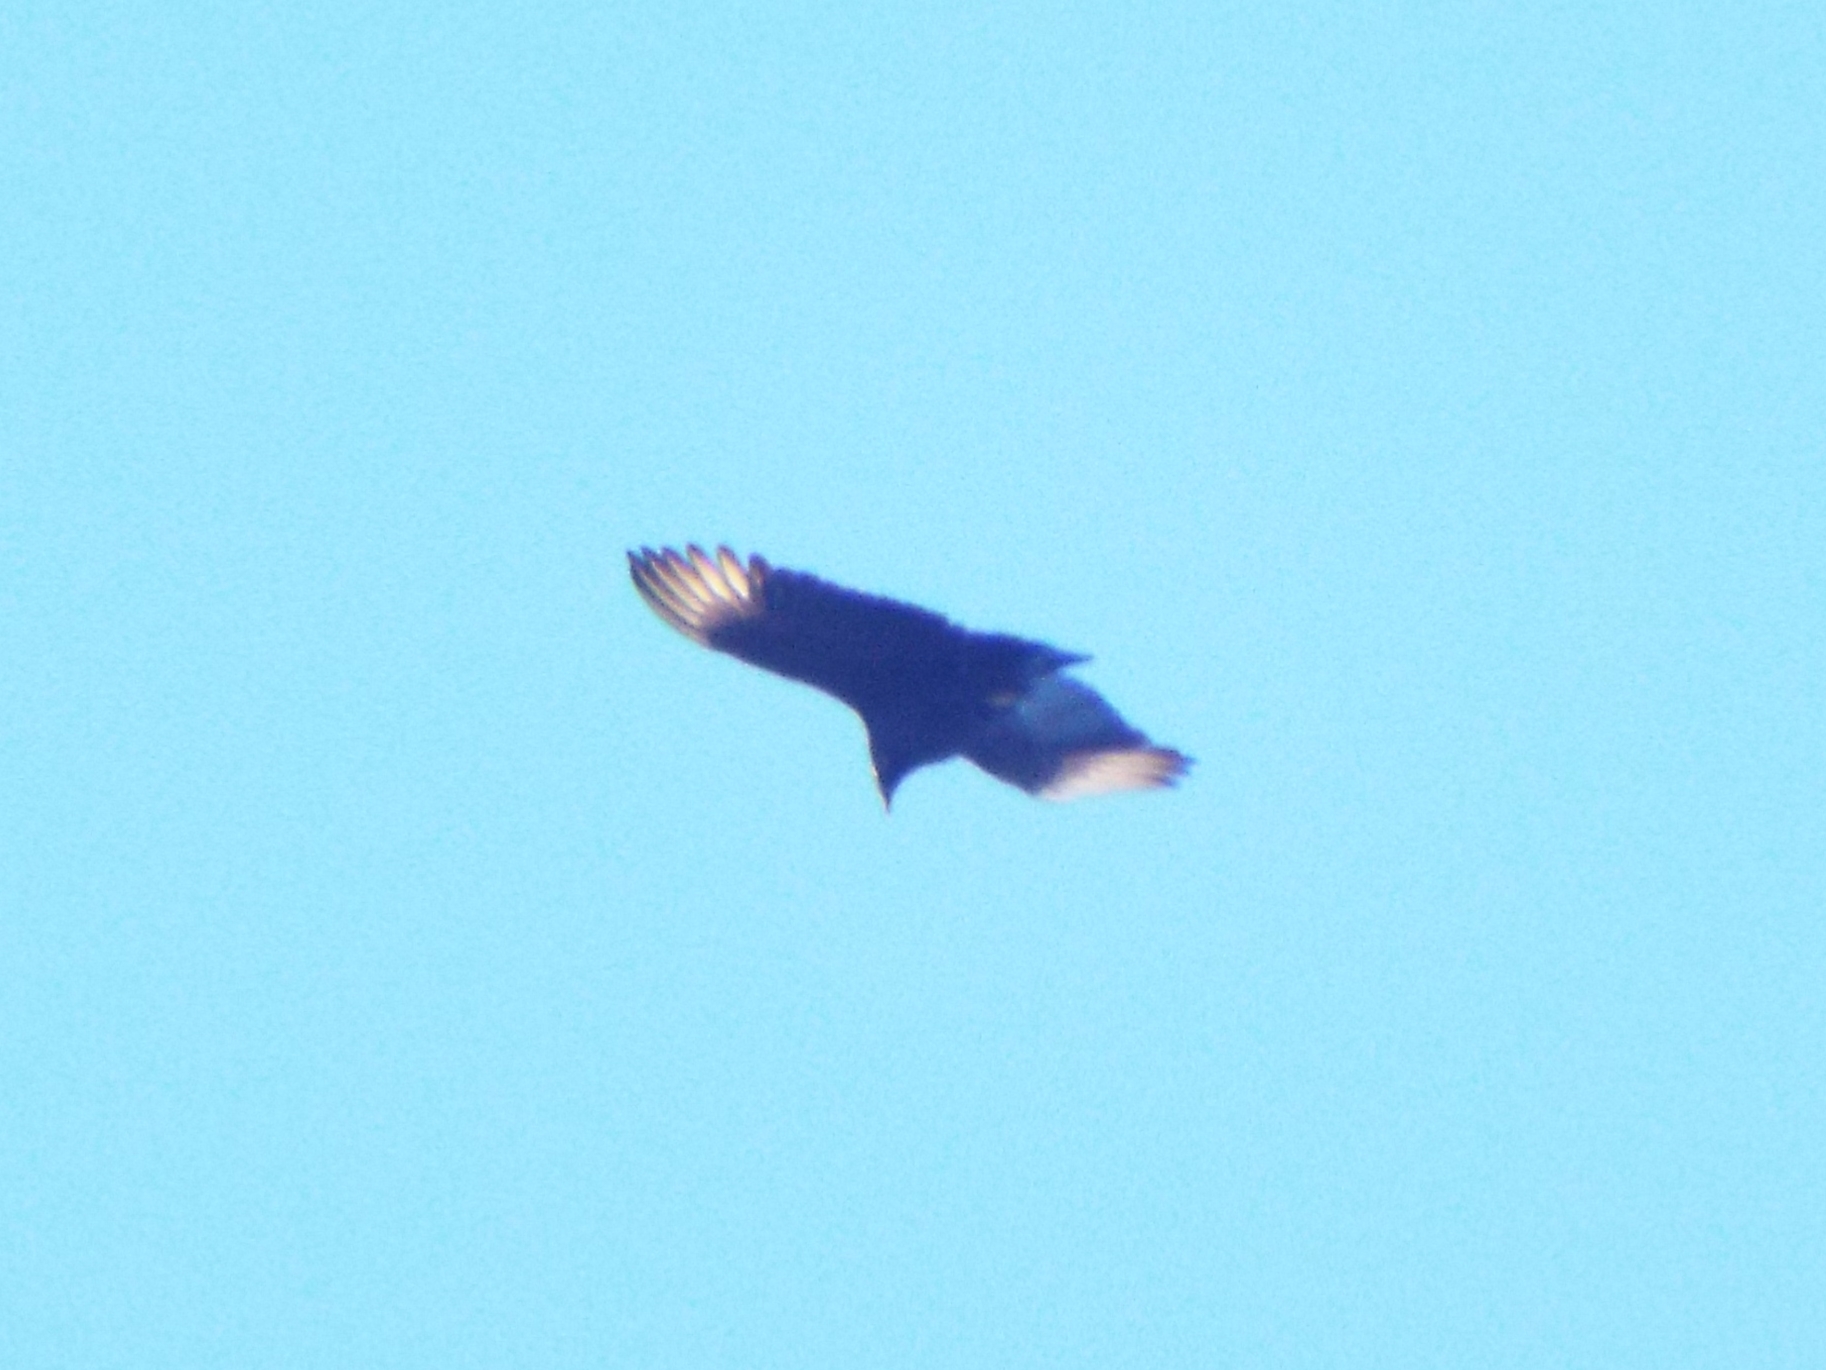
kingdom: Animalia
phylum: Chordata
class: Aves
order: Accipitriformes
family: Cathartidae
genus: Coragyps
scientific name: Coragyps atratus
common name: Black vulture
